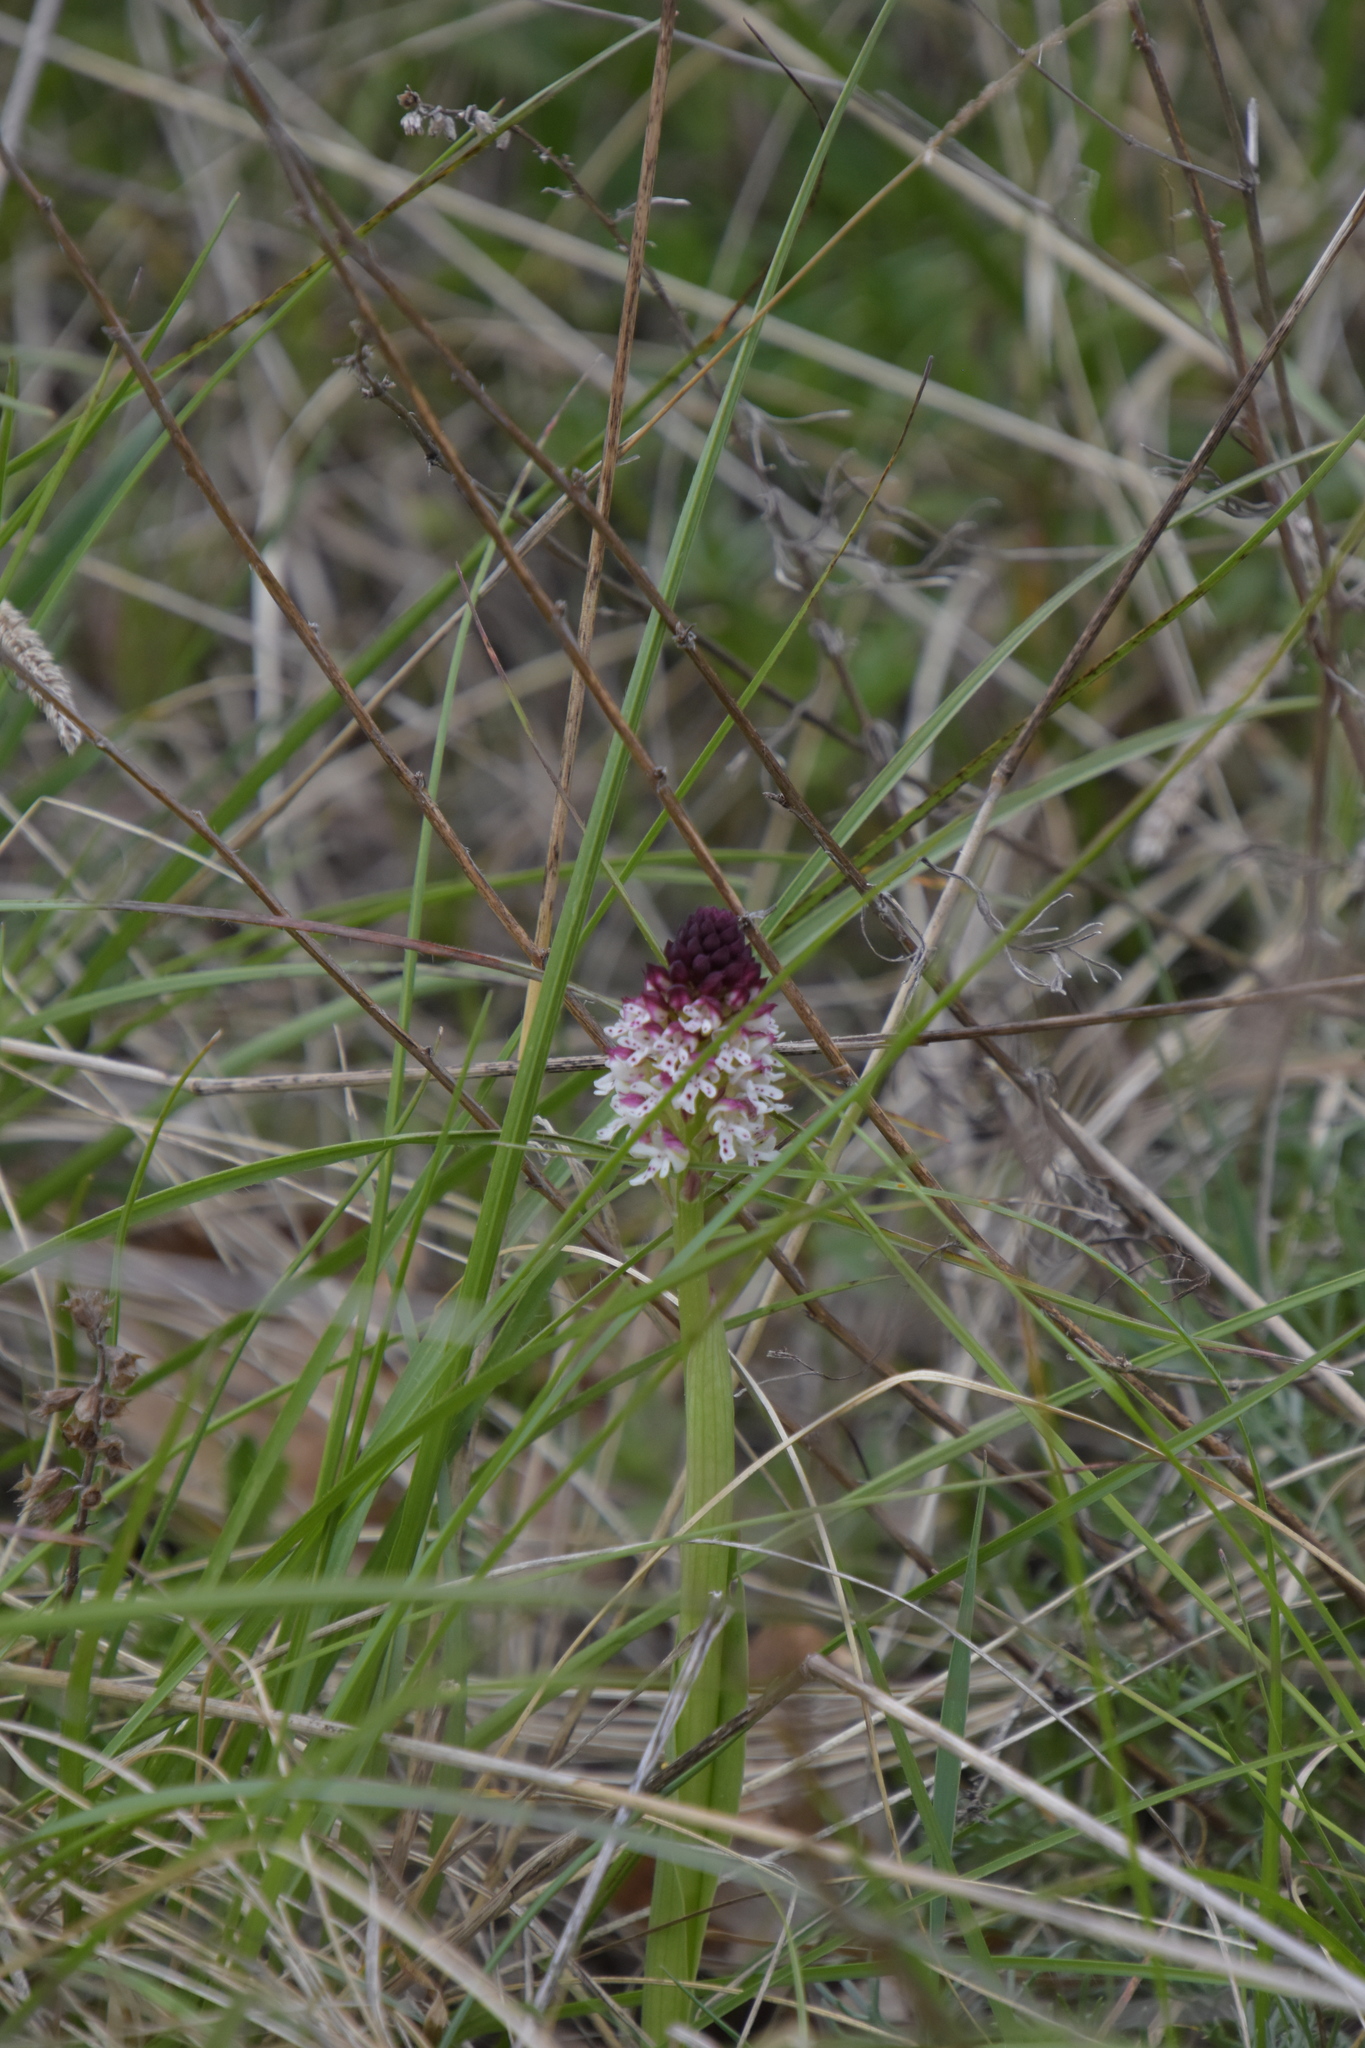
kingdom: Plantae
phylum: Tracheophyta
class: Liliopsida
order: Asparagales
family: Orchidaceae
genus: Neotinea
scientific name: Neotinea ustulata
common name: Burnt orchid
